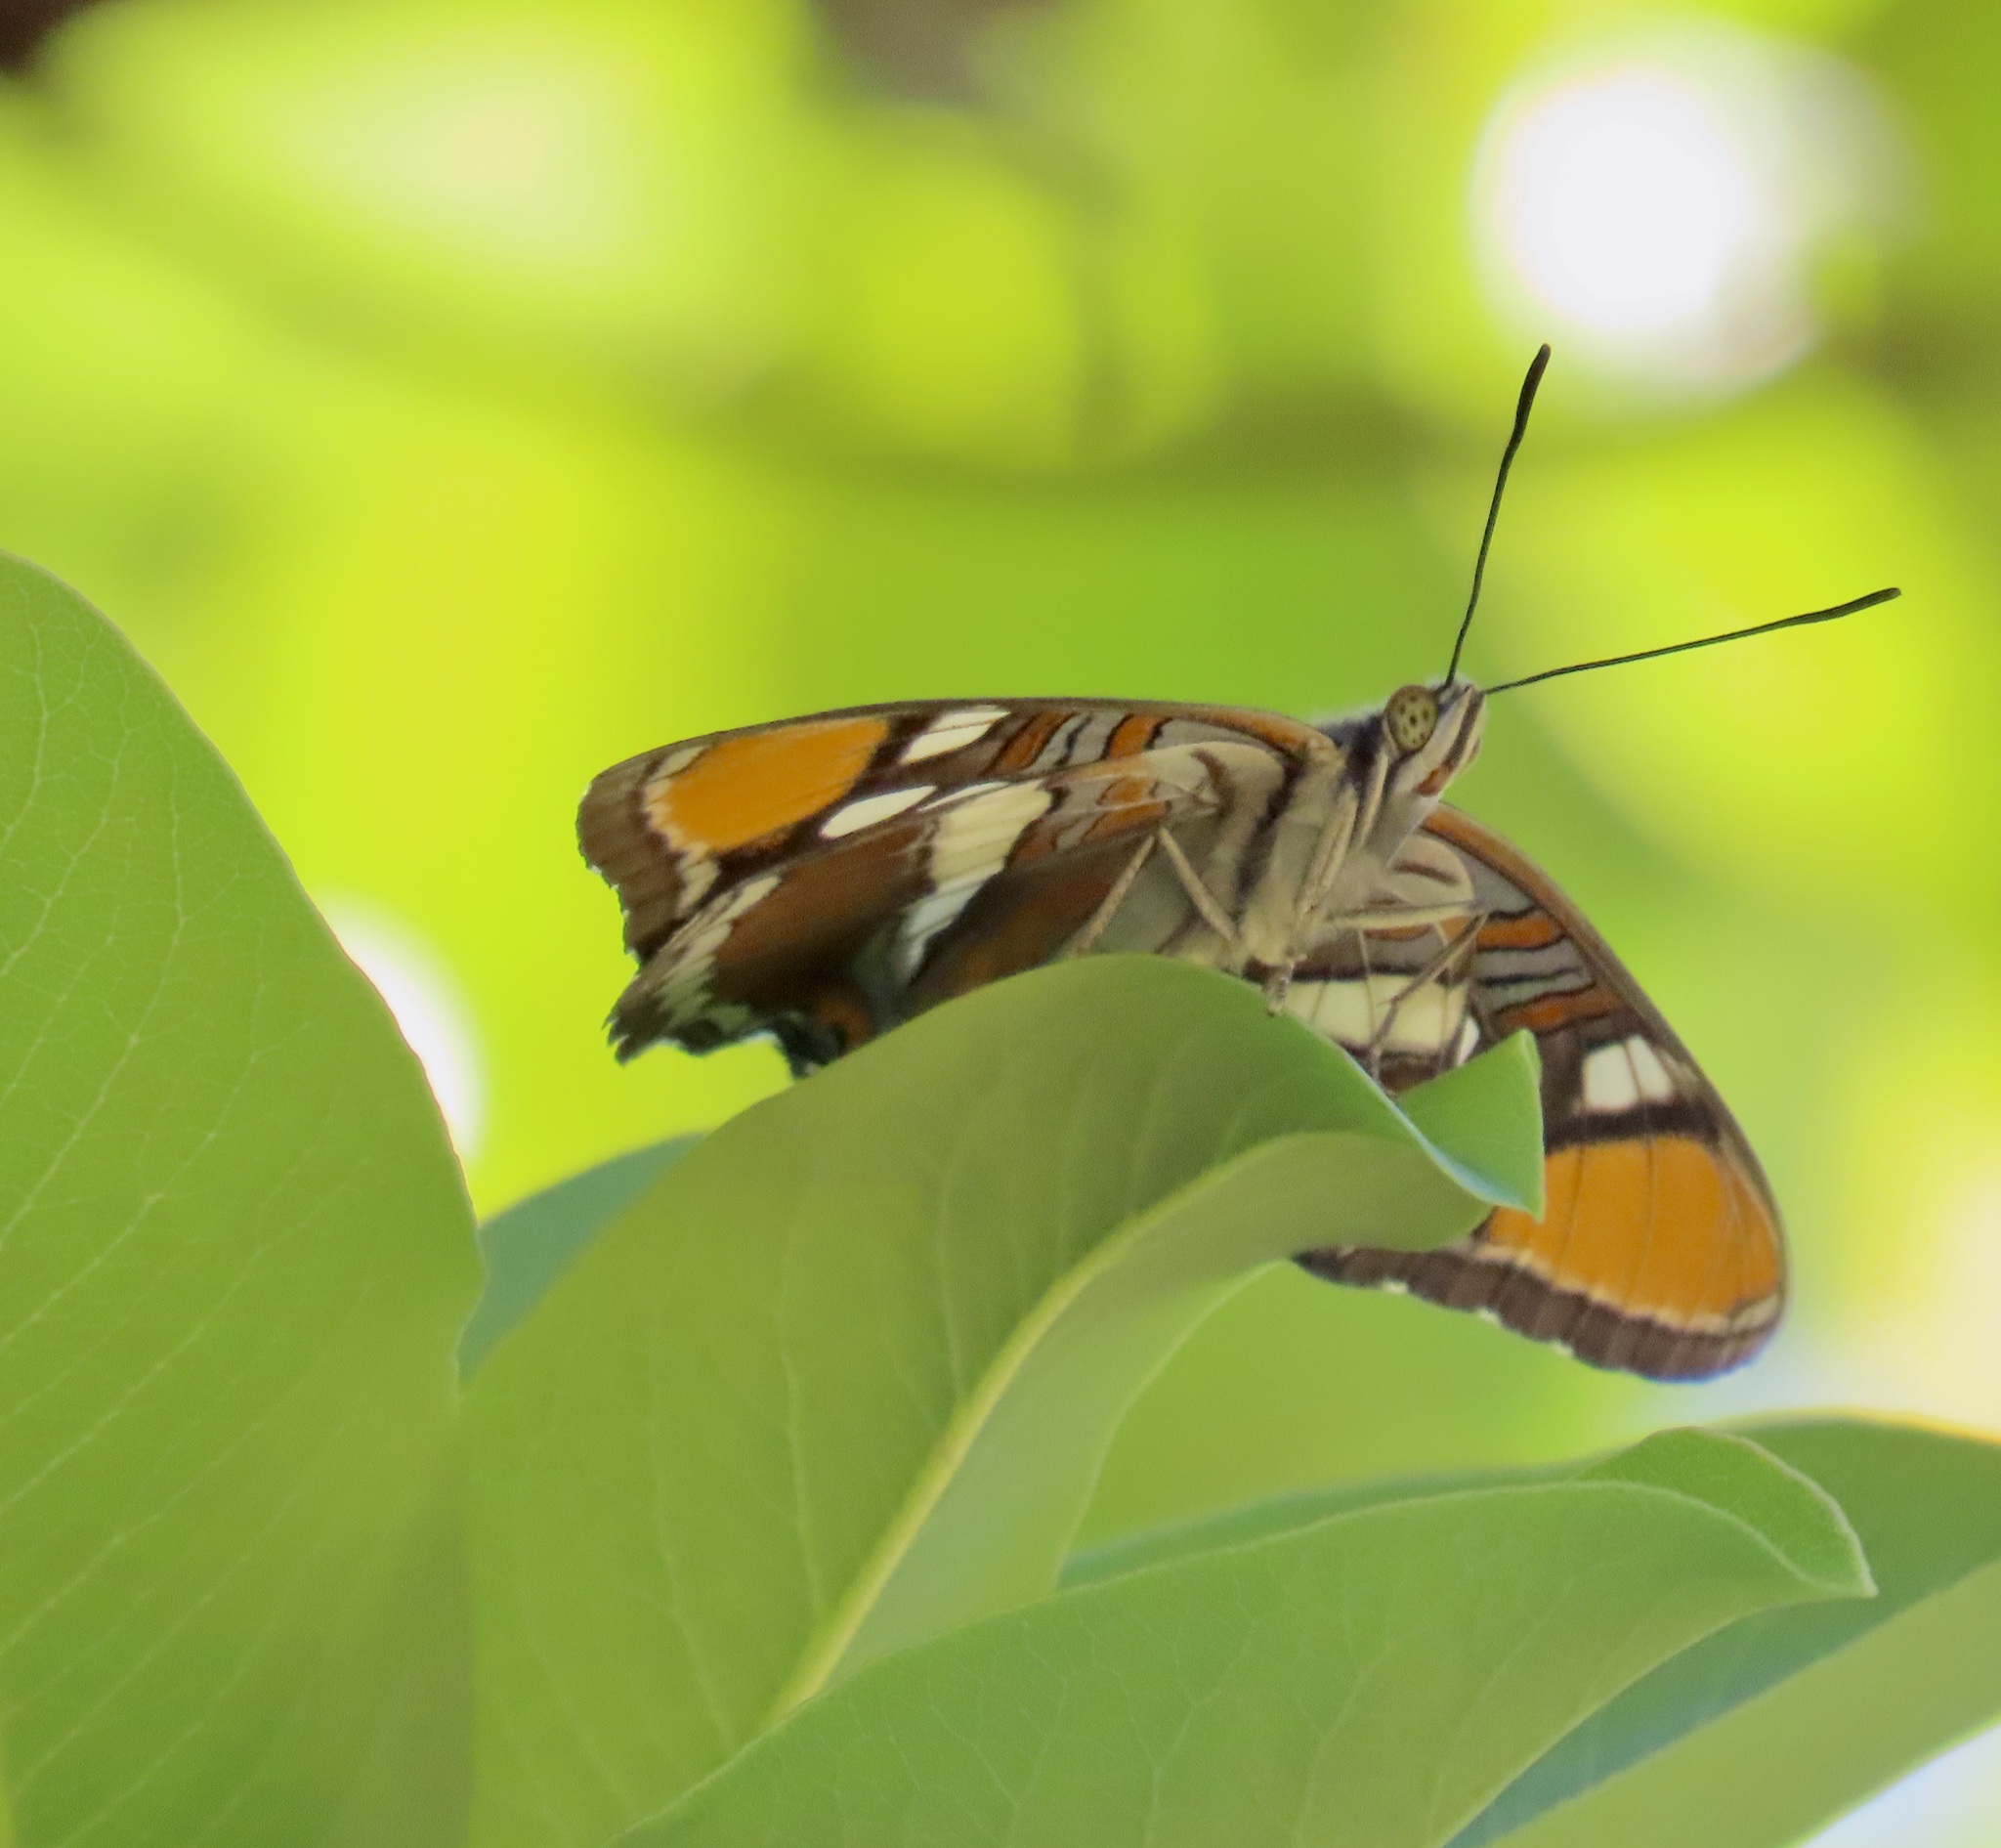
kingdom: Animalia
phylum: Arthropoda
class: Insecta
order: Lepidoptera
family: Nymphalidae
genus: Limenitis
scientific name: Limenitis bredowii
